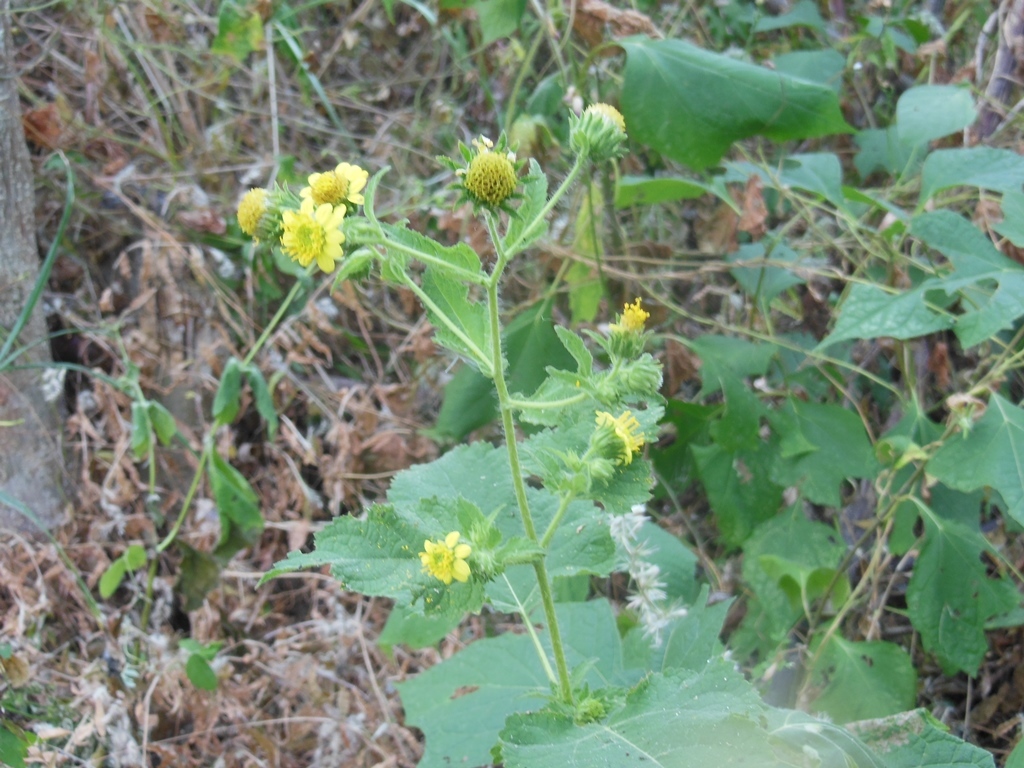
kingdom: Plantae
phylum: Tracheophyta
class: Magnoliopsida
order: Asterales
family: Asteraceae
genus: Simsia
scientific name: Simsia foetida
